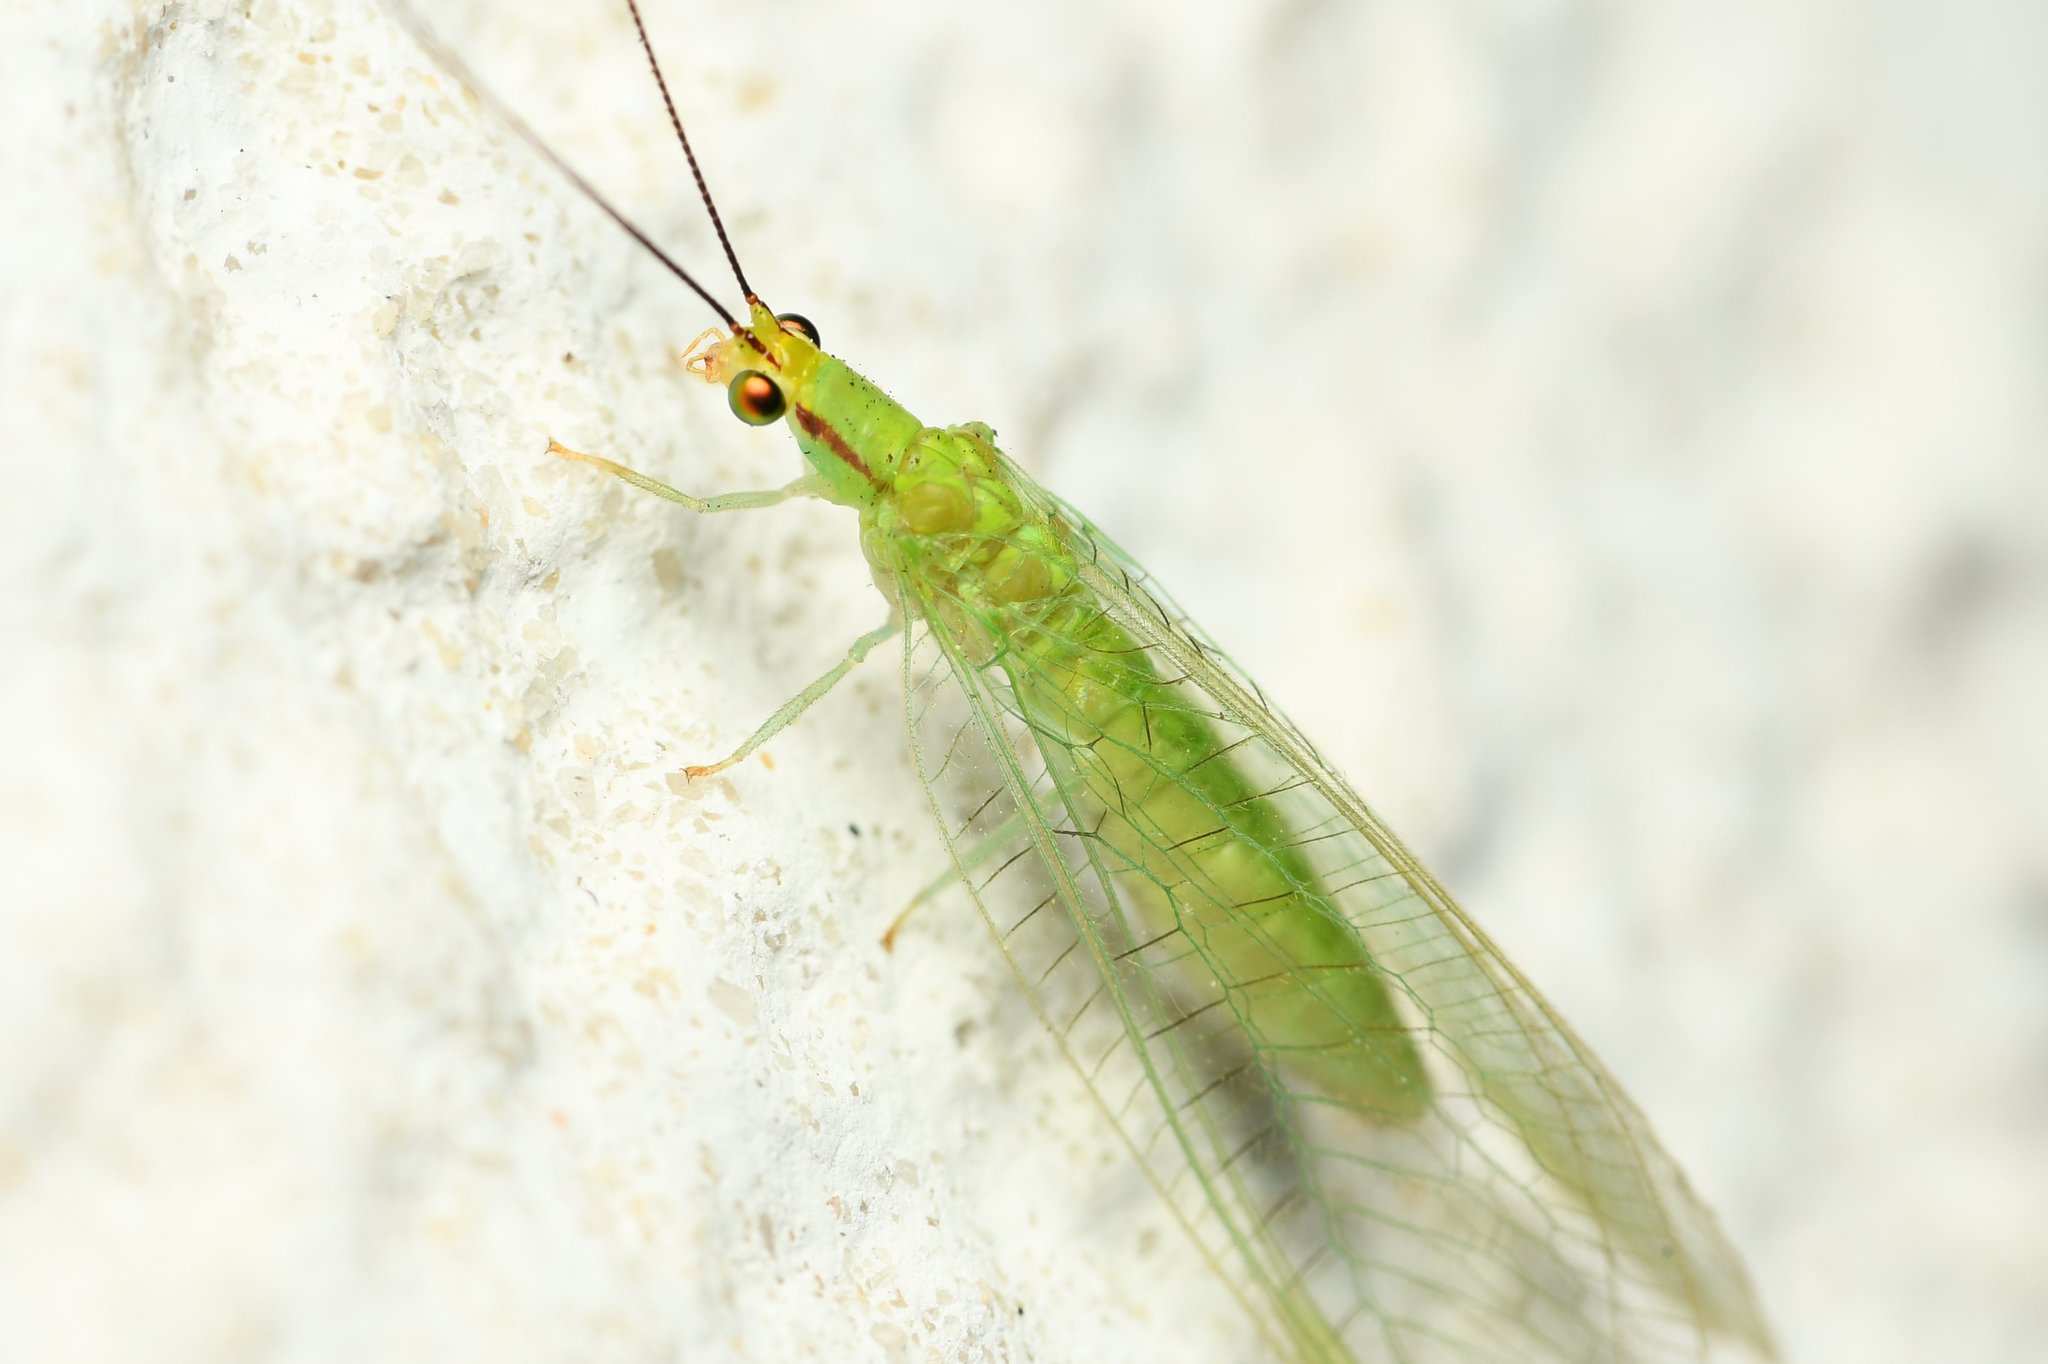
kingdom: Animalia
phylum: Arthropoda
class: Insecta
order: Neuroptera
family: Chrysopidae
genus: Ceraeochrysa
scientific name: Ceraeochrysa claveri
